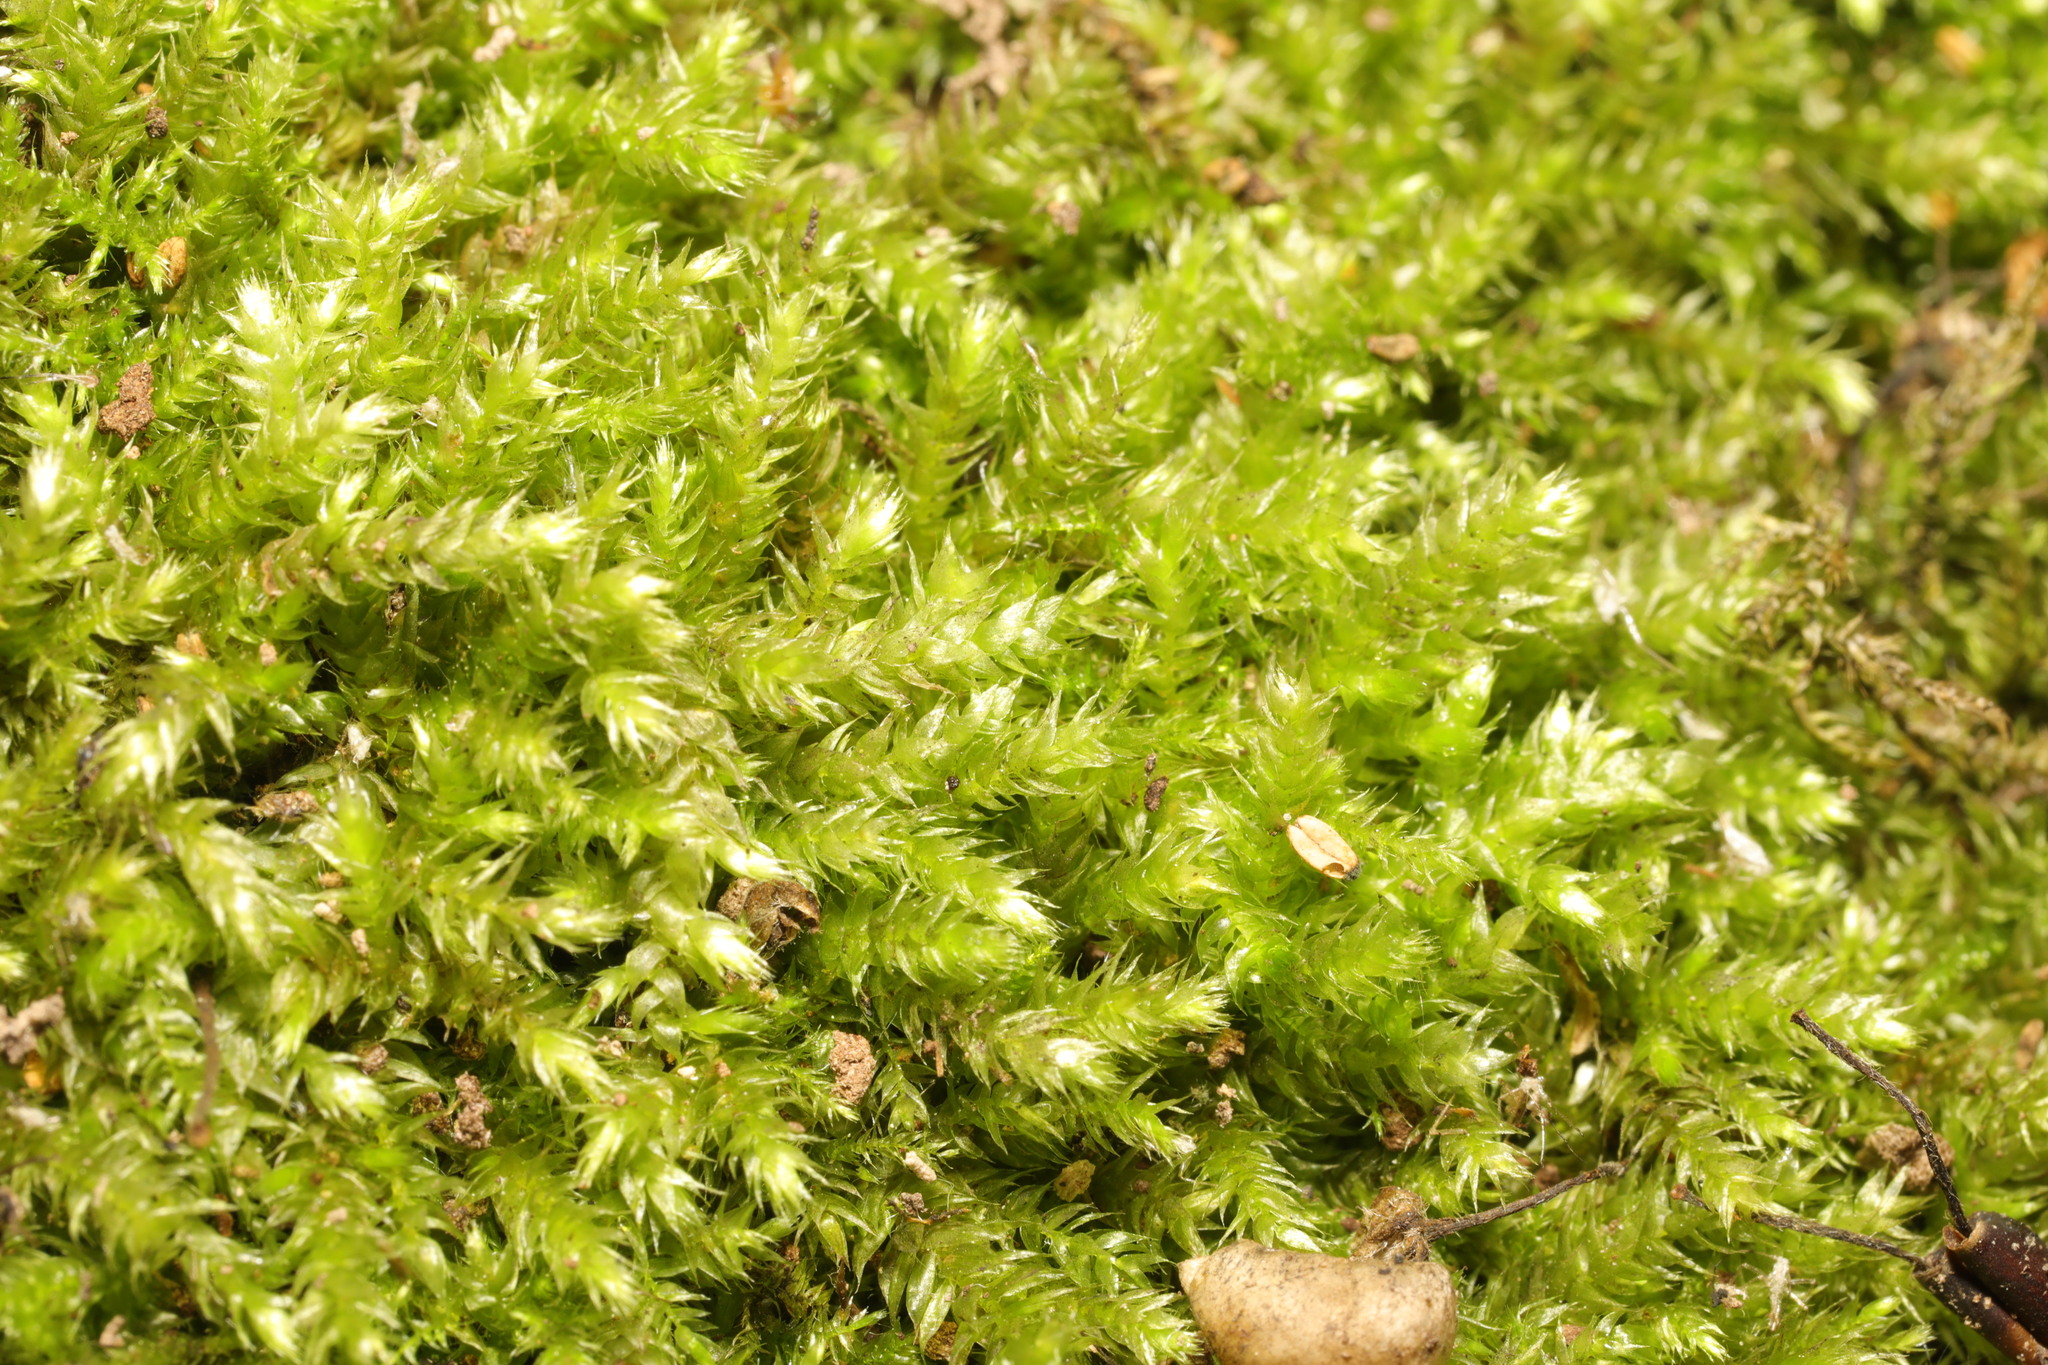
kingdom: Plantae
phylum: Bryophyta
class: Bryopsida
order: Hypnales
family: Brachytheciaceae
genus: Brachythecium
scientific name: Brachythecium rutabulum
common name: Rough-stalked feather-moss
